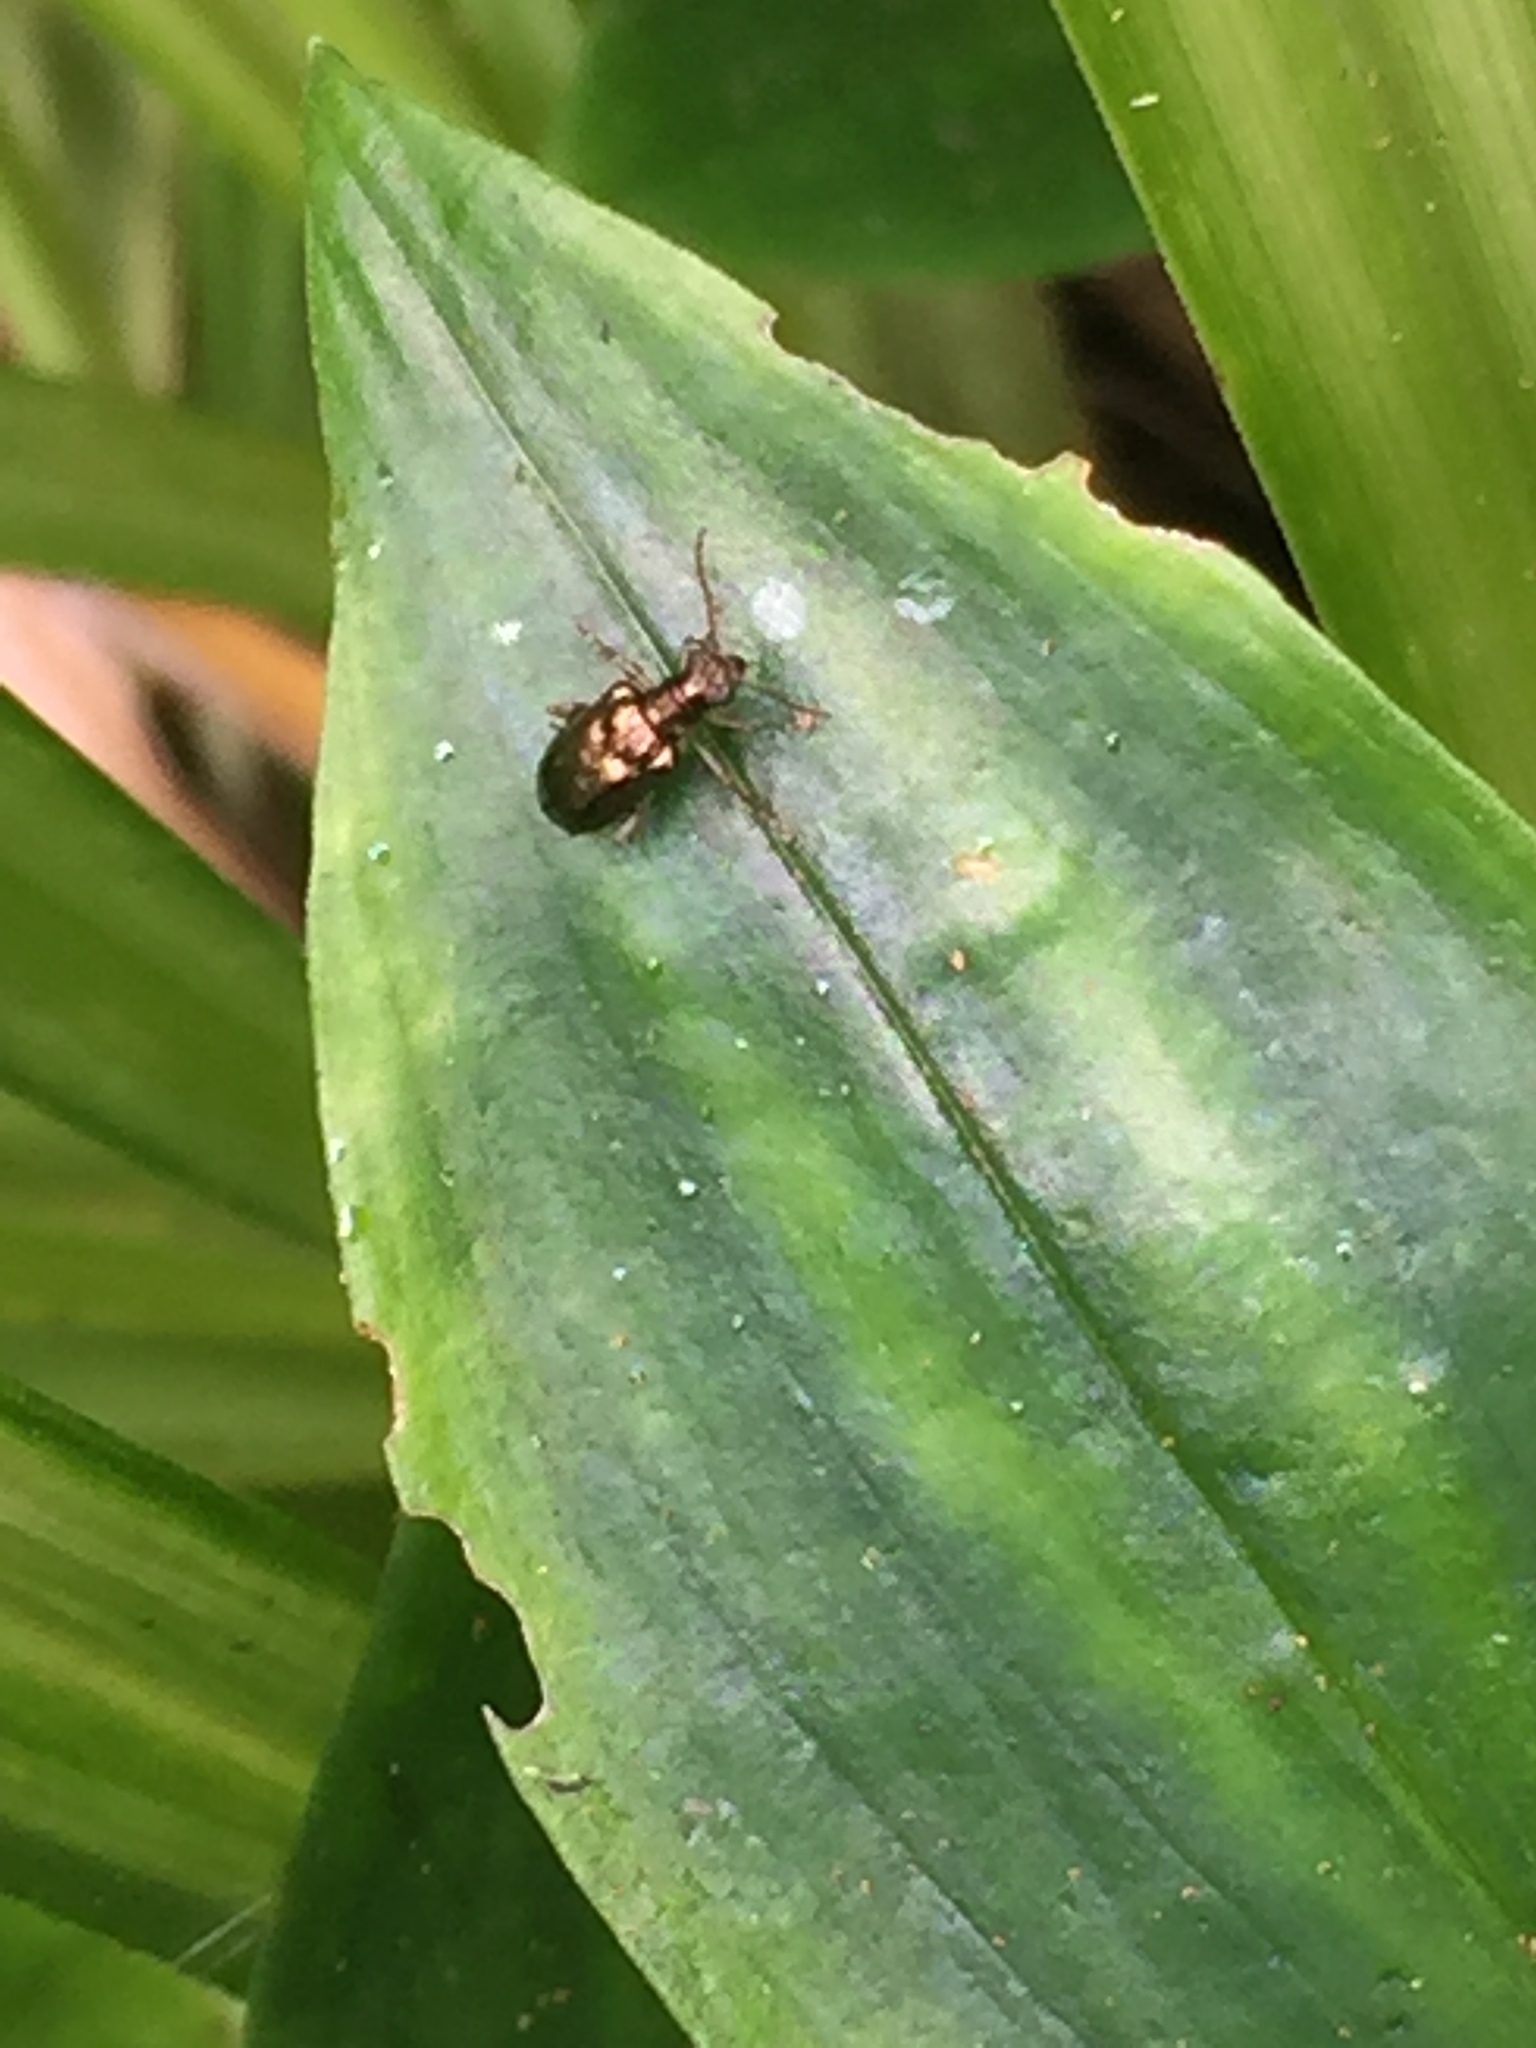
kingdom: Animalia
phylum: Arthropoda
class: Insecta
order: Coleoptera
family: Chrysomelidae
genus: Neolema
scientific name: Neolema ogloblini
